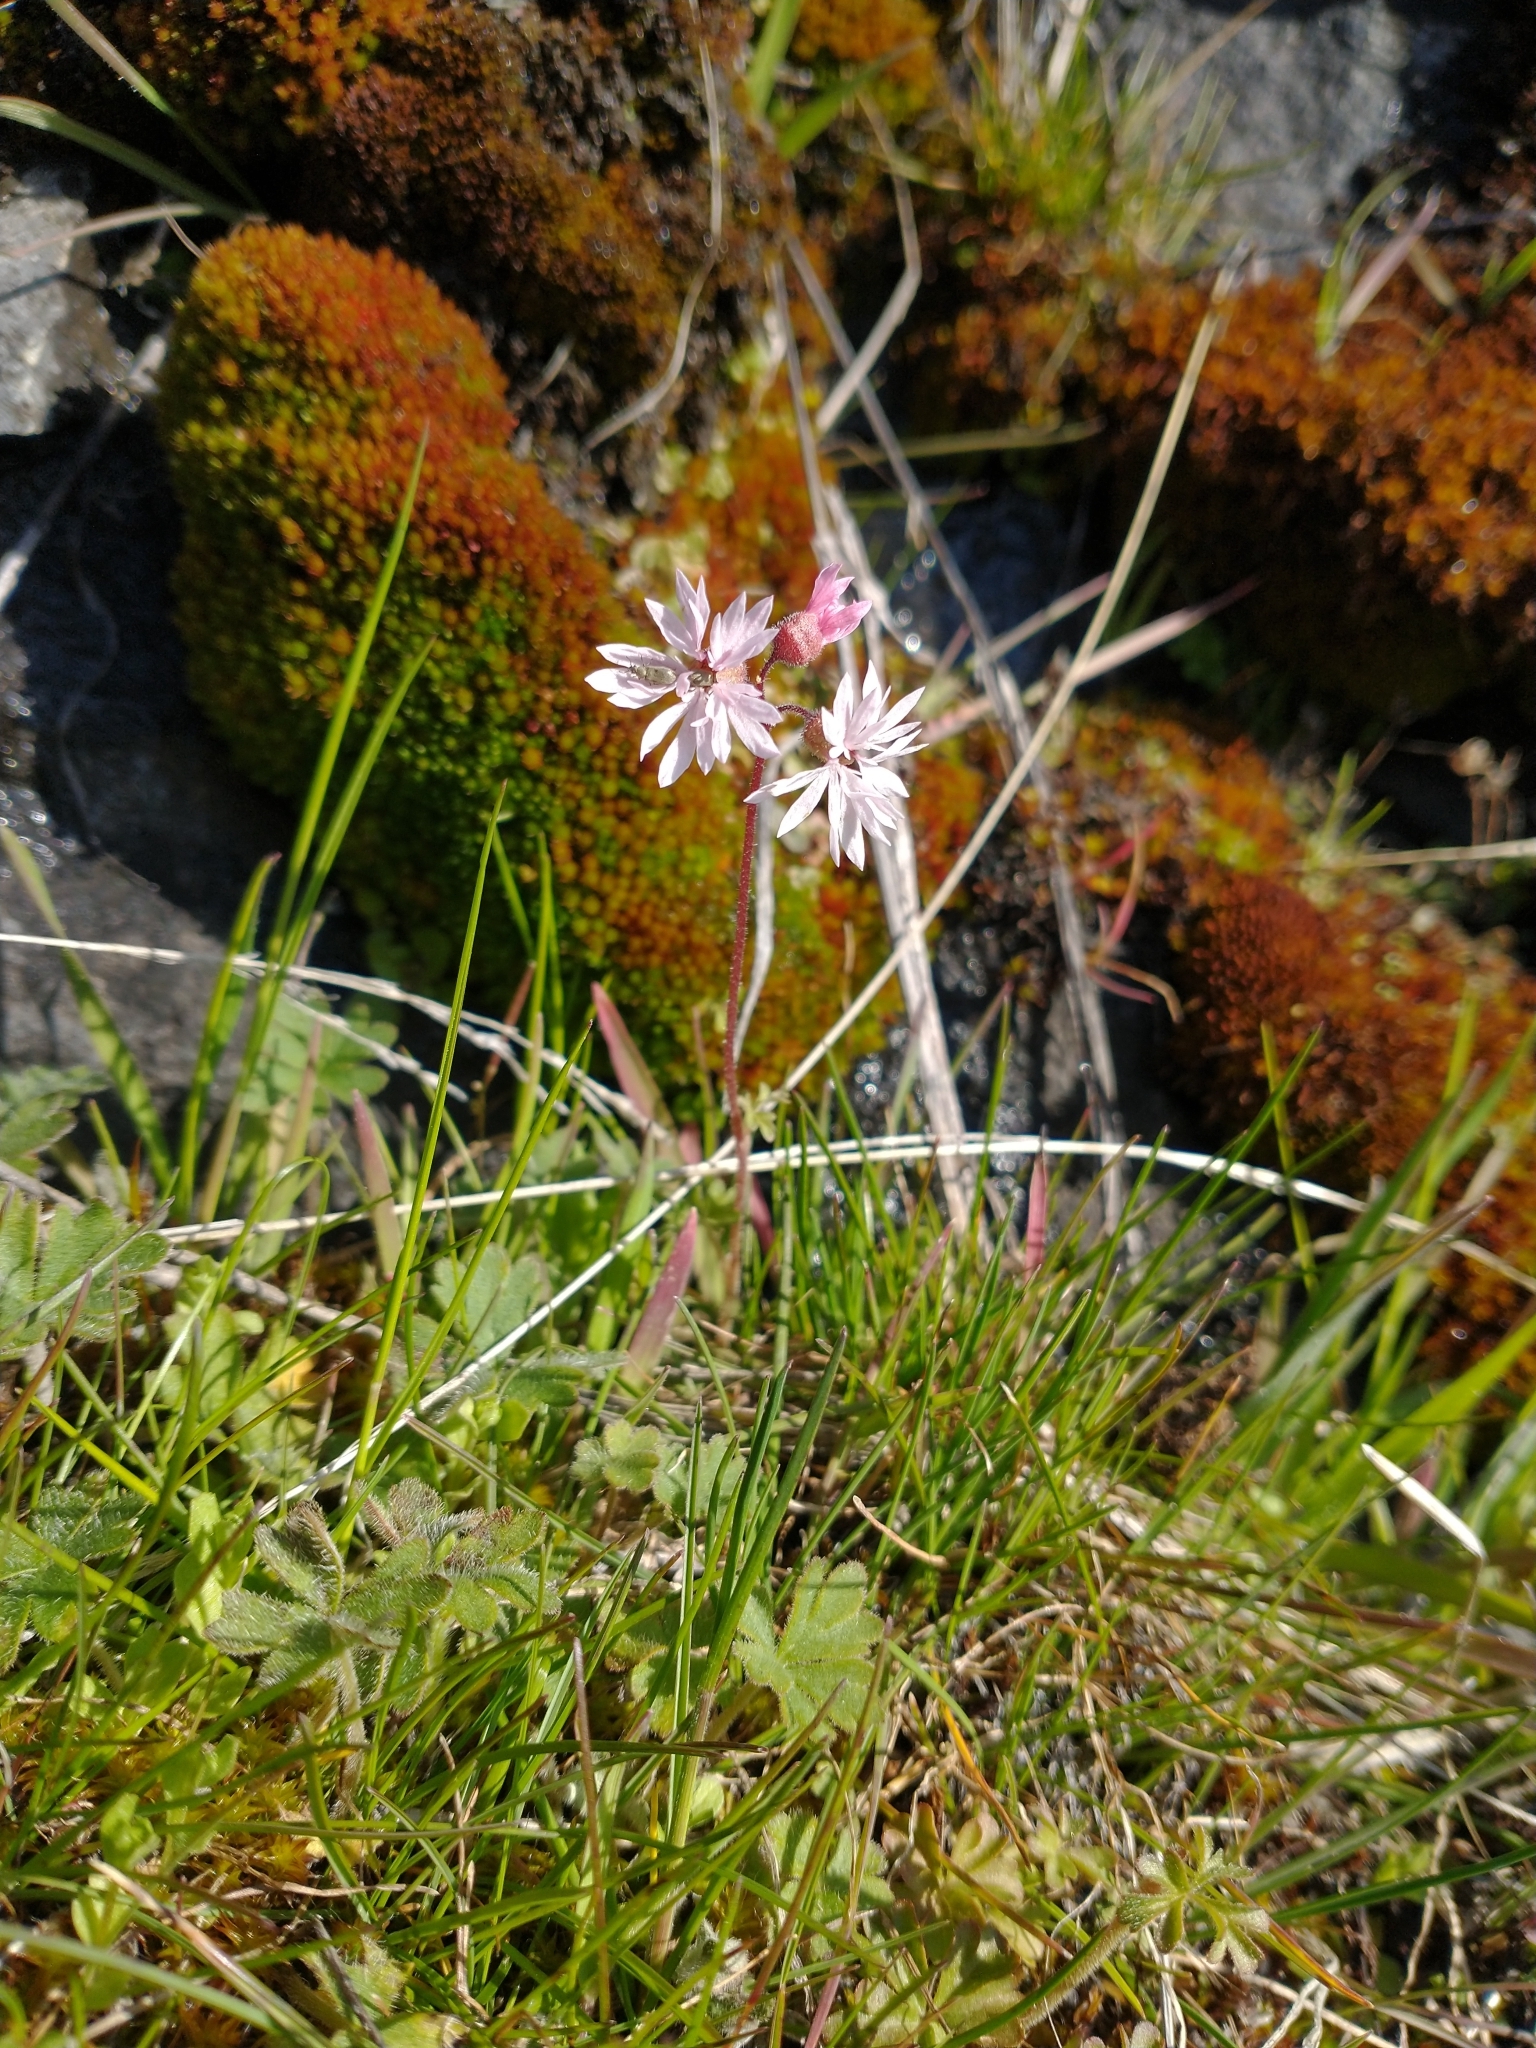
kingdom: Plantae
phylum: Tracheophyta
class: Magnoliopsida
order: Saxifragales
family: Saxifragaceae
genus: Lithophragma
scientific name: Lithophragma glabrum
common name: Bulbous prairie-star
